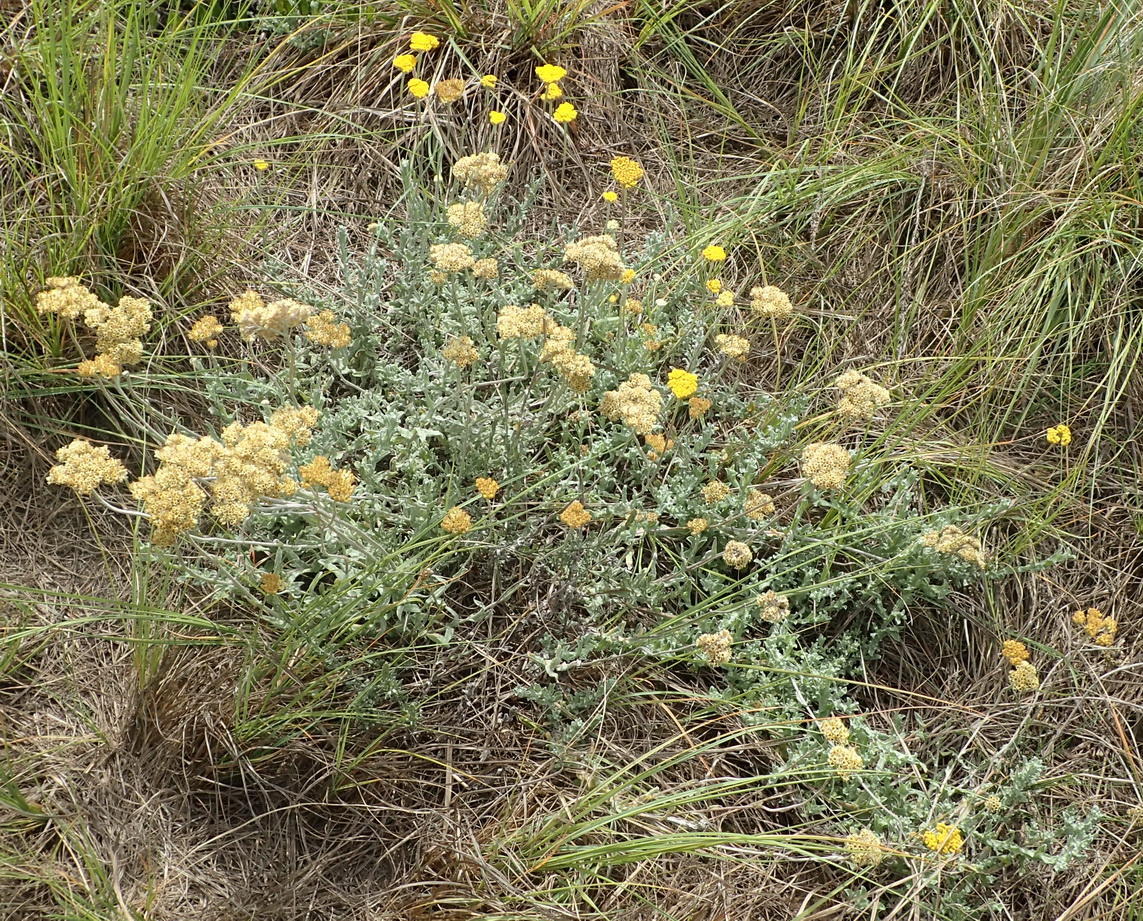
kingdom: Plantae
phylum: Tracheophyta
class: Magnoliopsida
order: Asterales
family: Asteraceae
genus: Helichrysum
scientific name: Helichrysum odoratissimum
